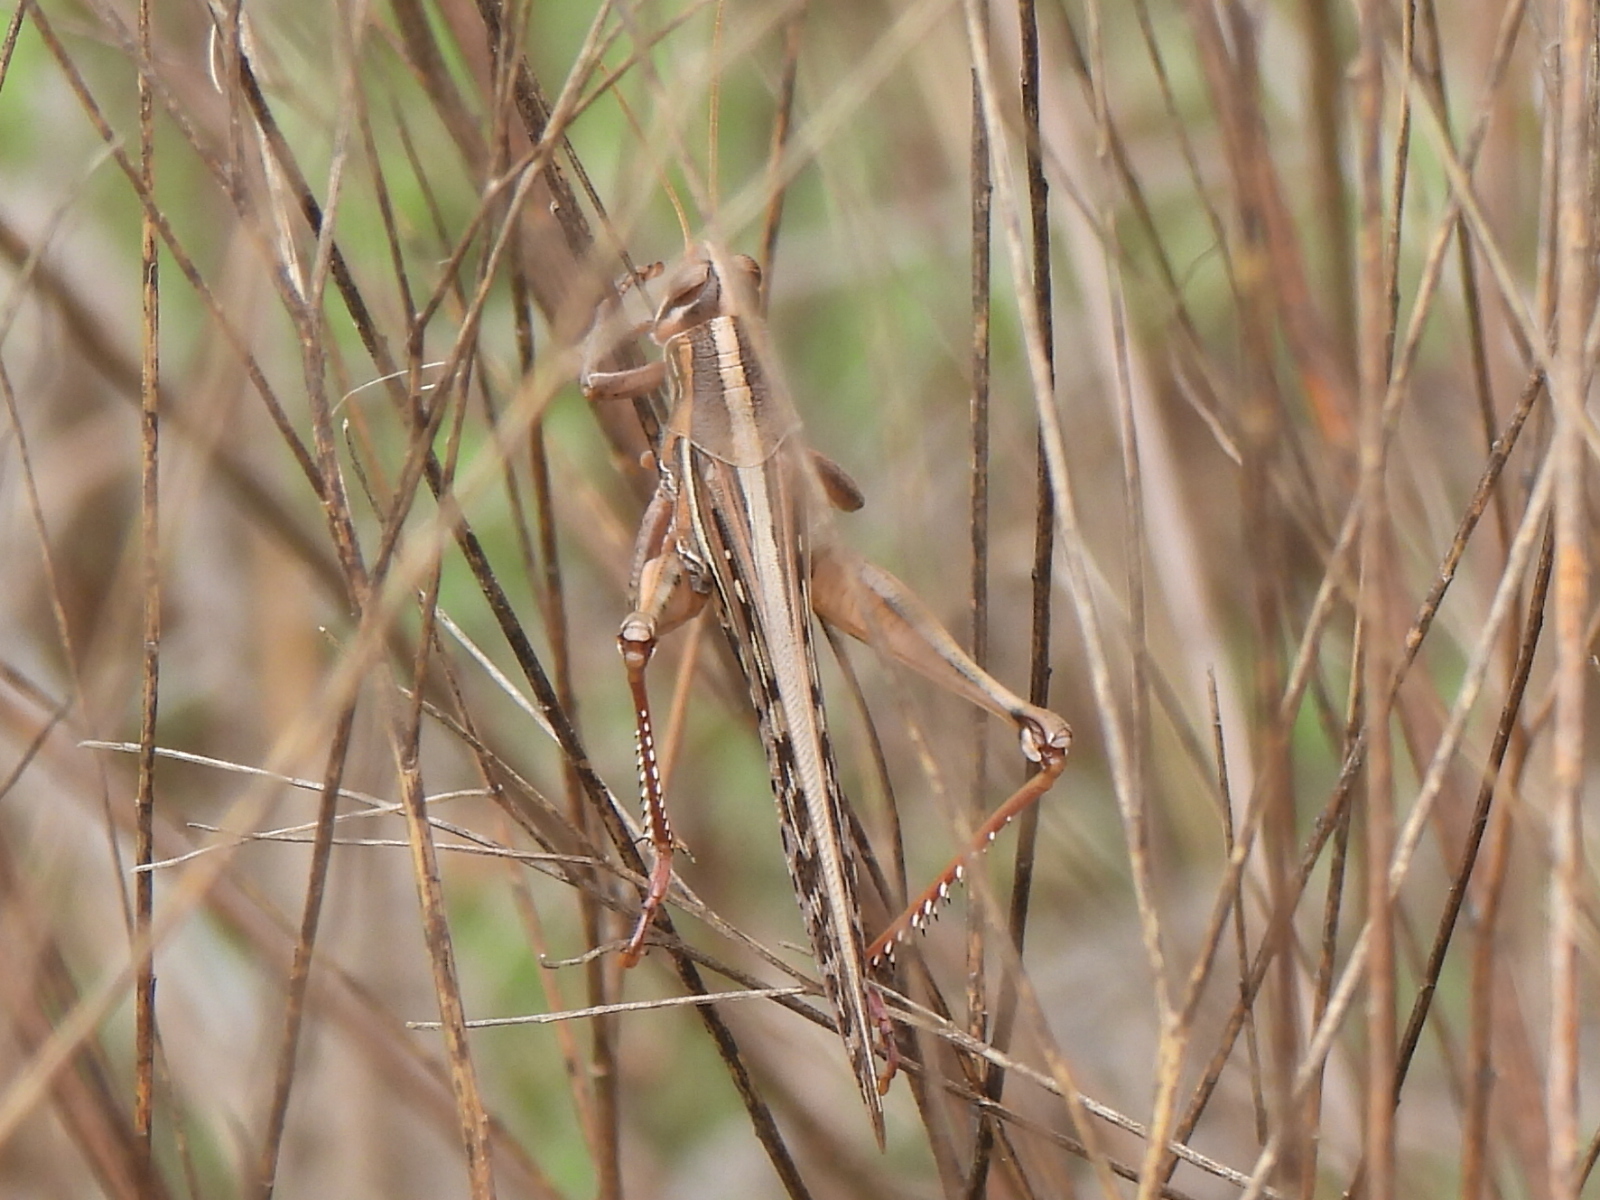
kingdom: Animalia
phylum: Arthropoda
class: Insecta
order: Orthoptera
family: Acrididae
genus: Schistocerca
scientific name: Schistocerca americana
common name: American bird locust
